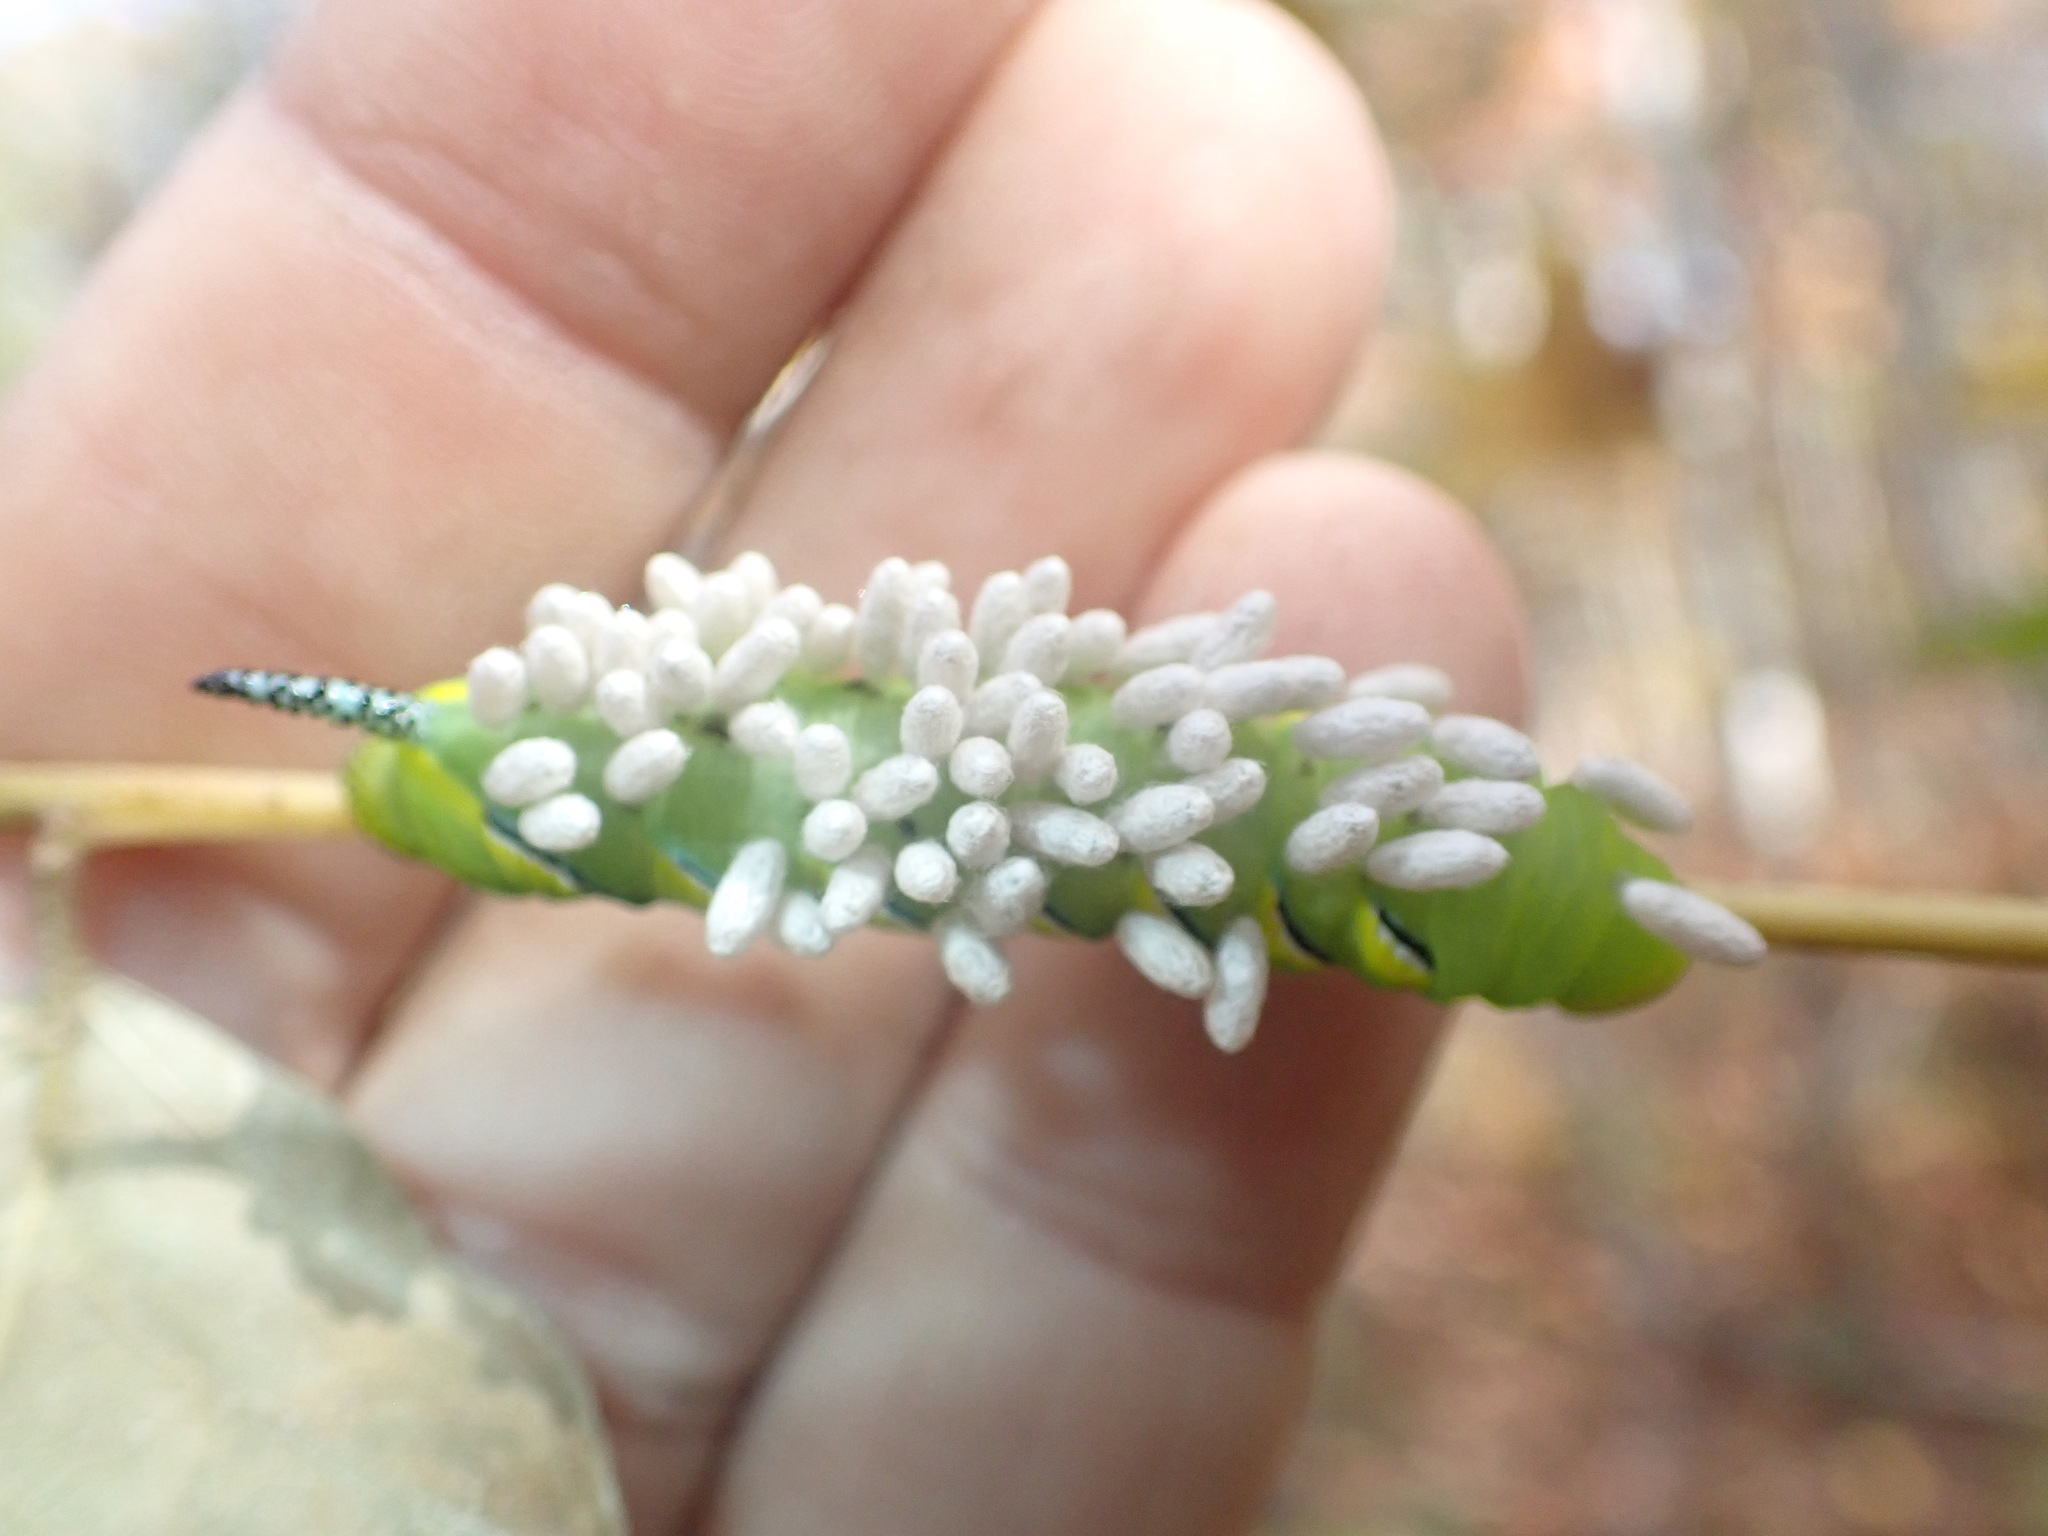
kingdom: Animalia
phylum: Arthropoda
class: Insecta
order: Lepidoptera
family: Sphingidae
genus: Sphinx
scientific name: Sphinx kalmiae
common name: Laurel sphinx
